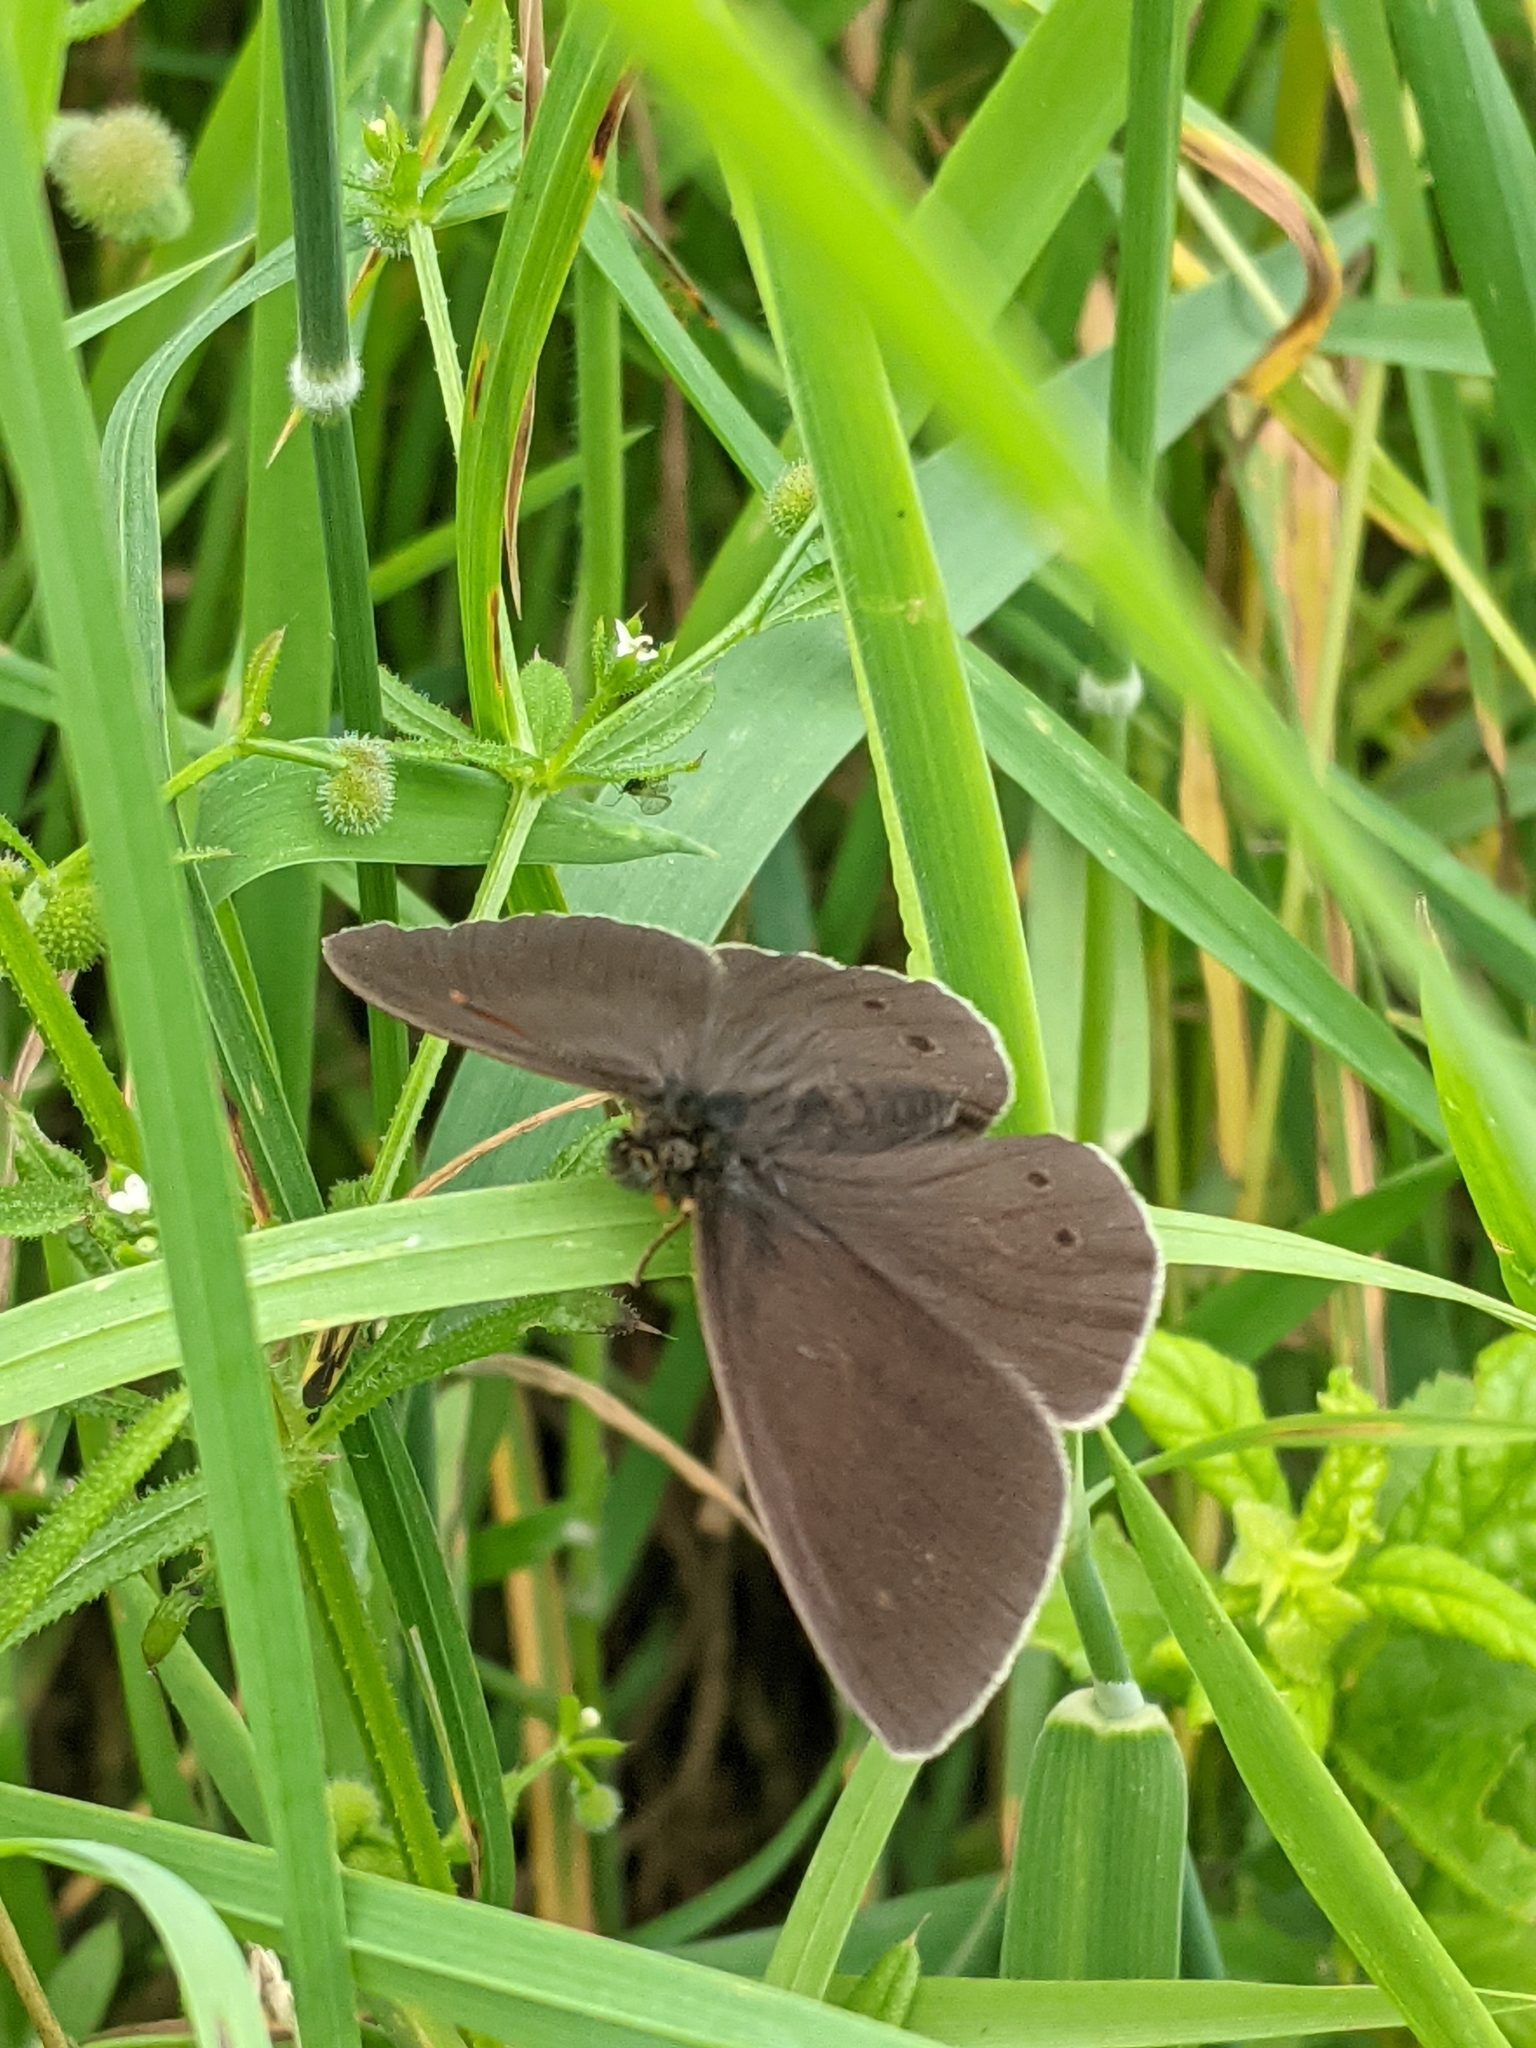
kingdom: Animalia
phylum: Arthropoda
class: Insecta
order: Lepidoptera
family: Nymphalidae
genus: Aphantopus
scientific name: Aphantopus hyperantus
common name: Ringlet
